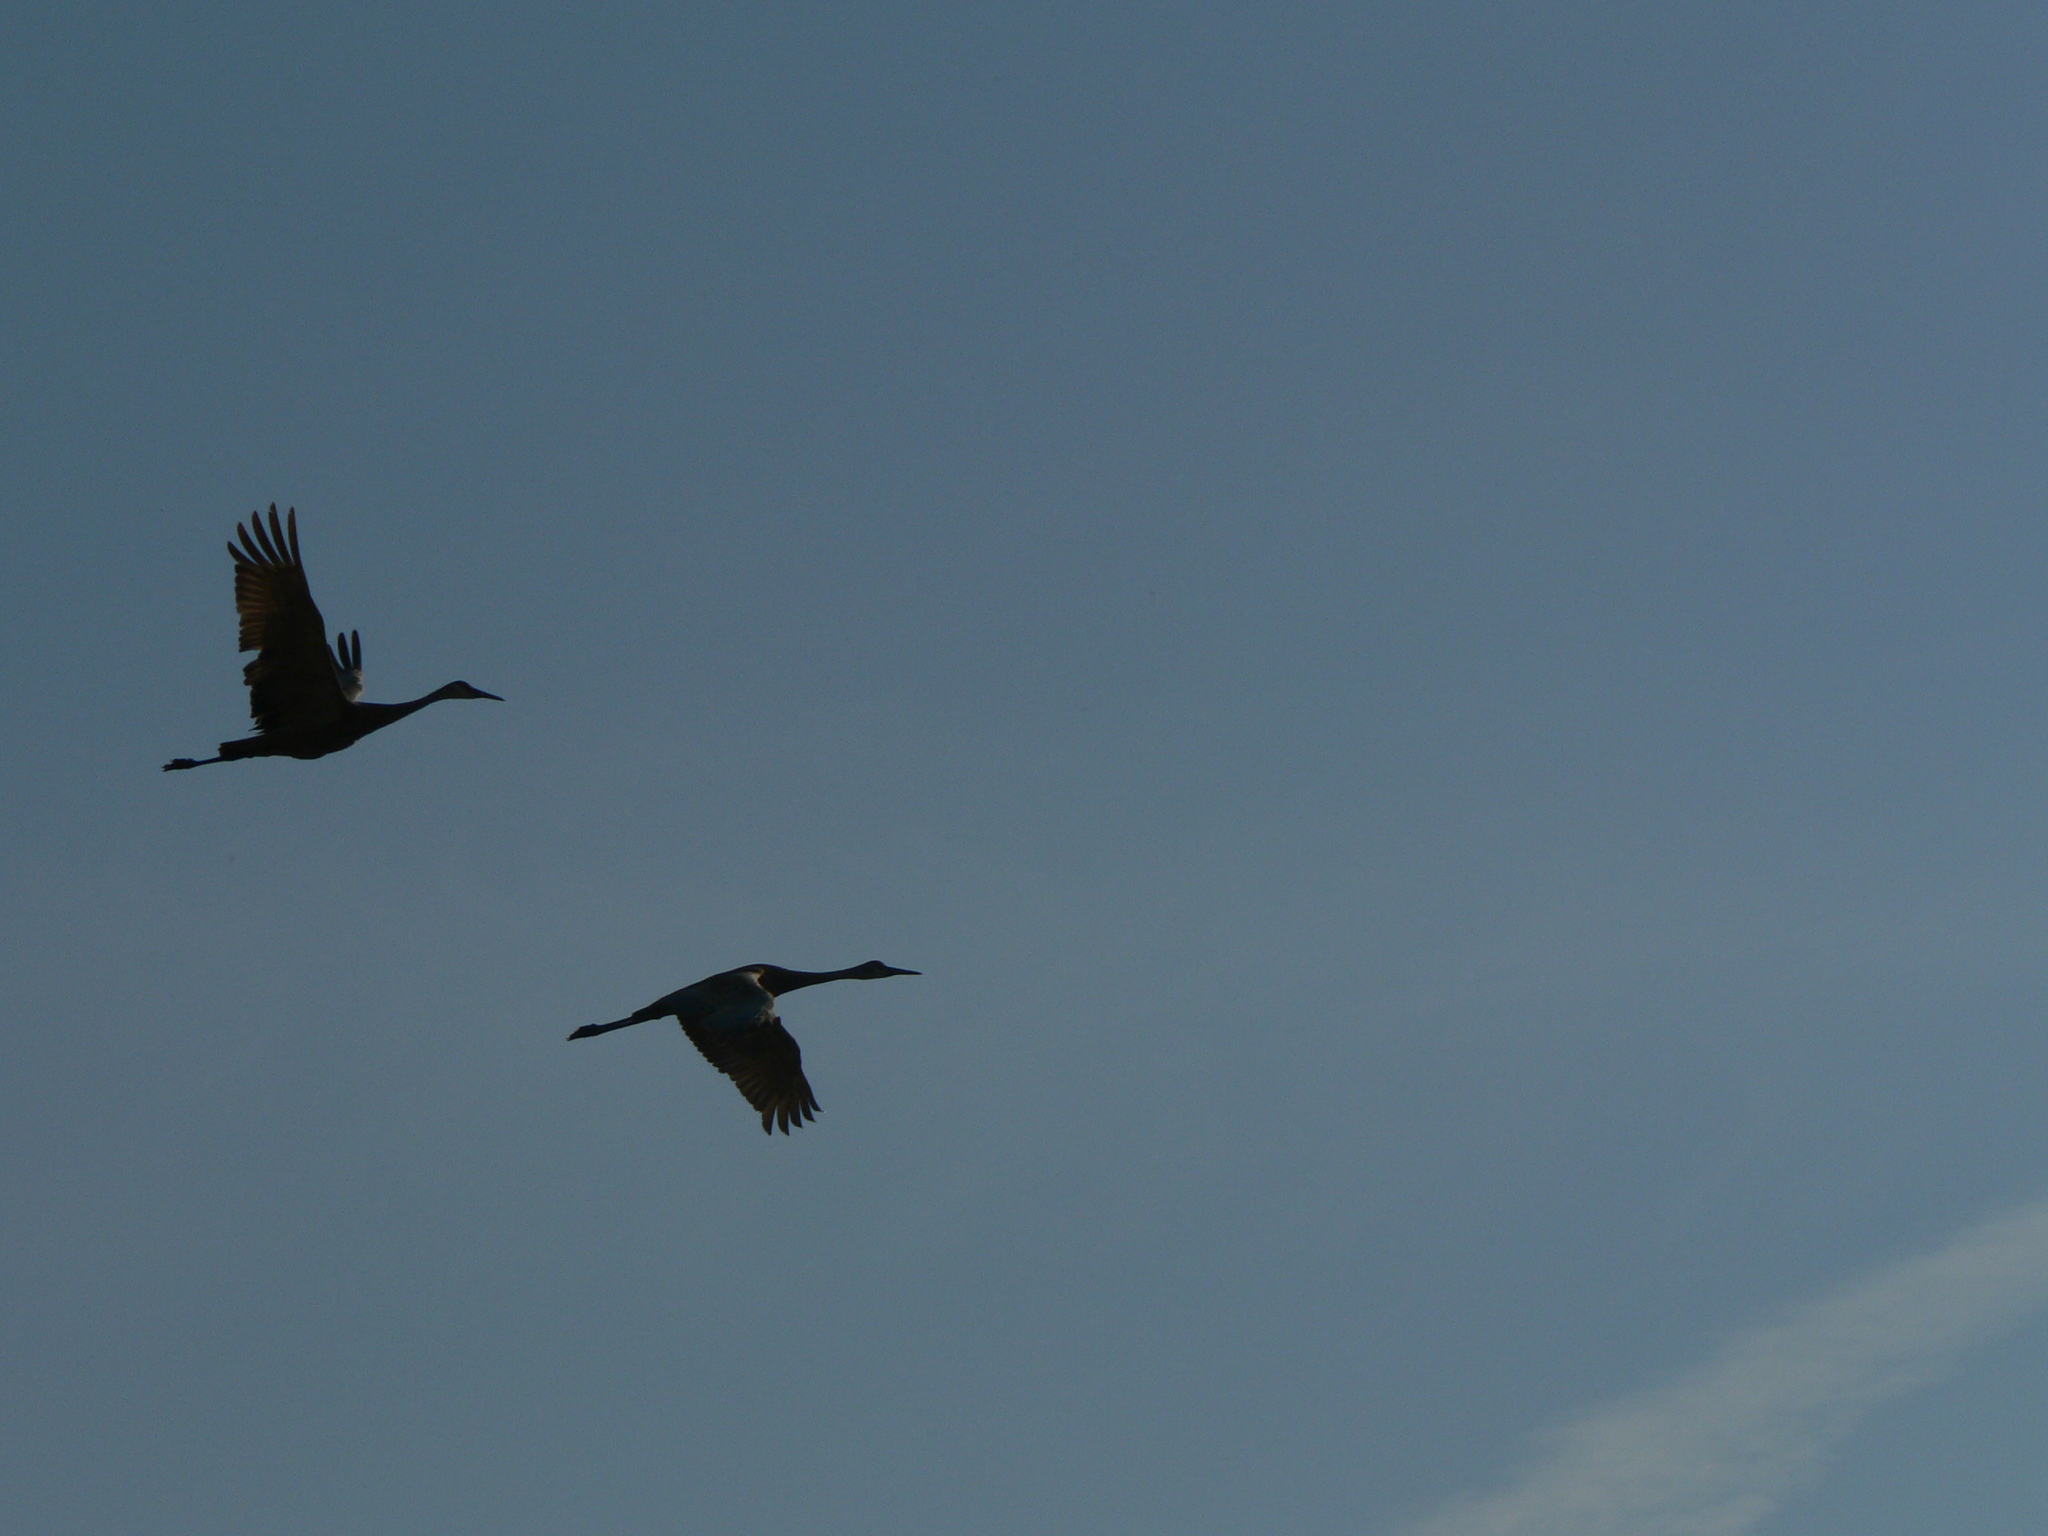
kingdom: Animalia
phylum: Chordata
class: Aves
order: Gruiformes
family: Gruidae
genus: Grus
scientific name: Grus canadensis
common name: Sandhill crane
